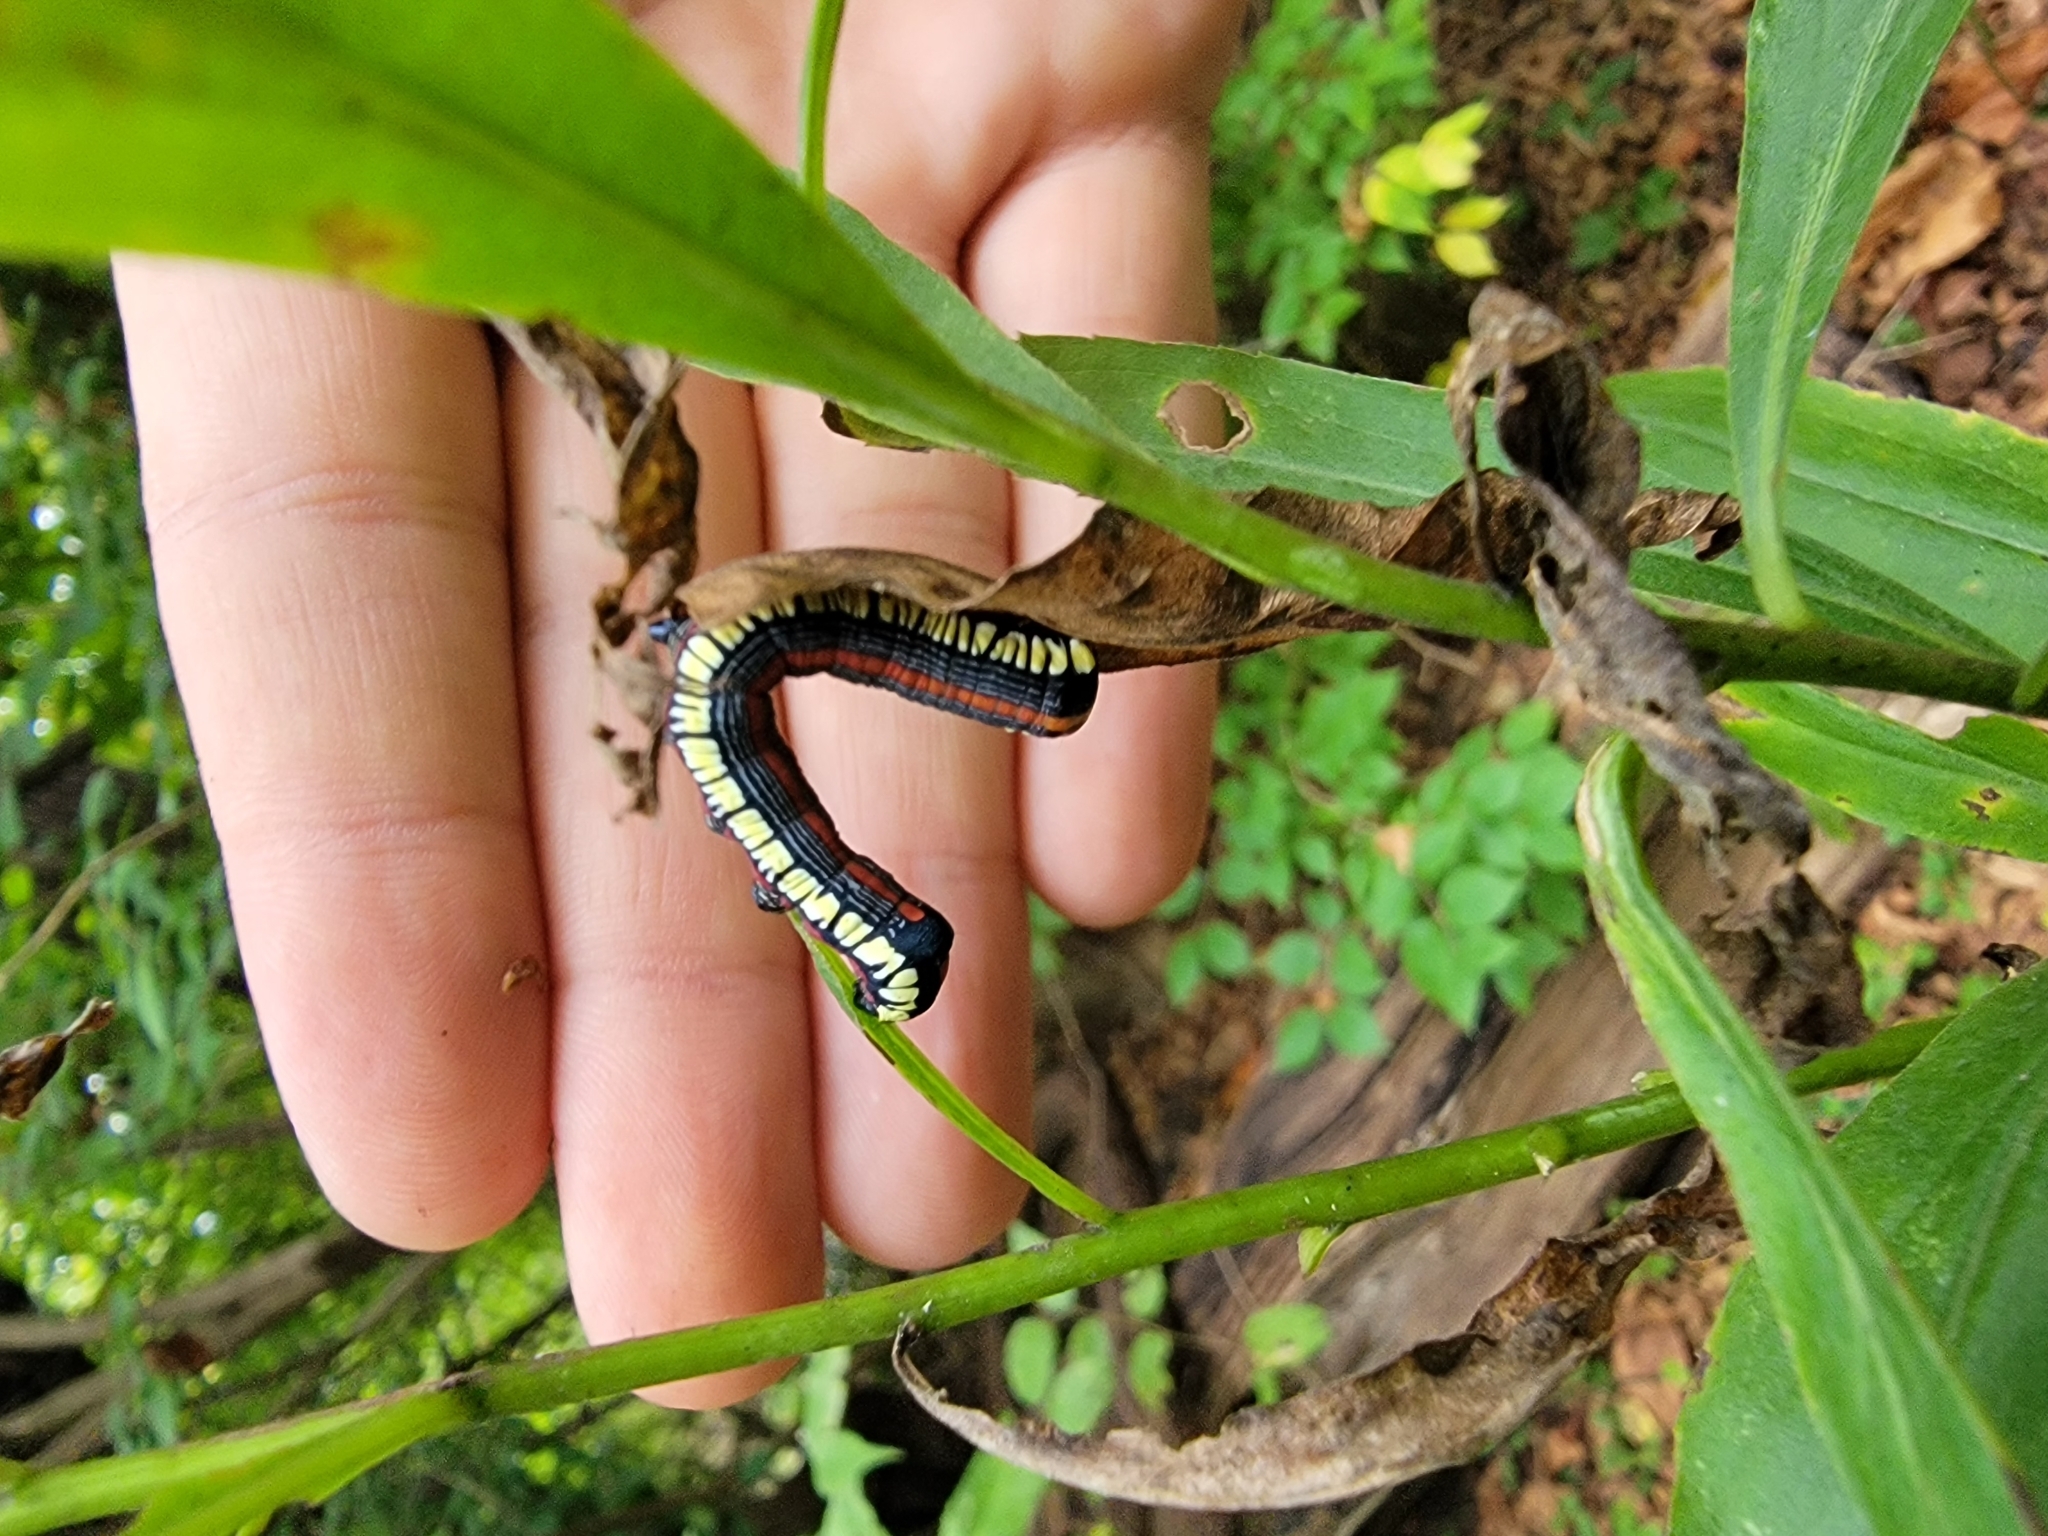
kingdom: Animalia
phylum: Arthropoda
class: Insecta
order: Lepidoptera
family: Noctuidae
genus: Cucullia
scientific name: Cucullia convexipennis
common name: Brown-hooded owlet
